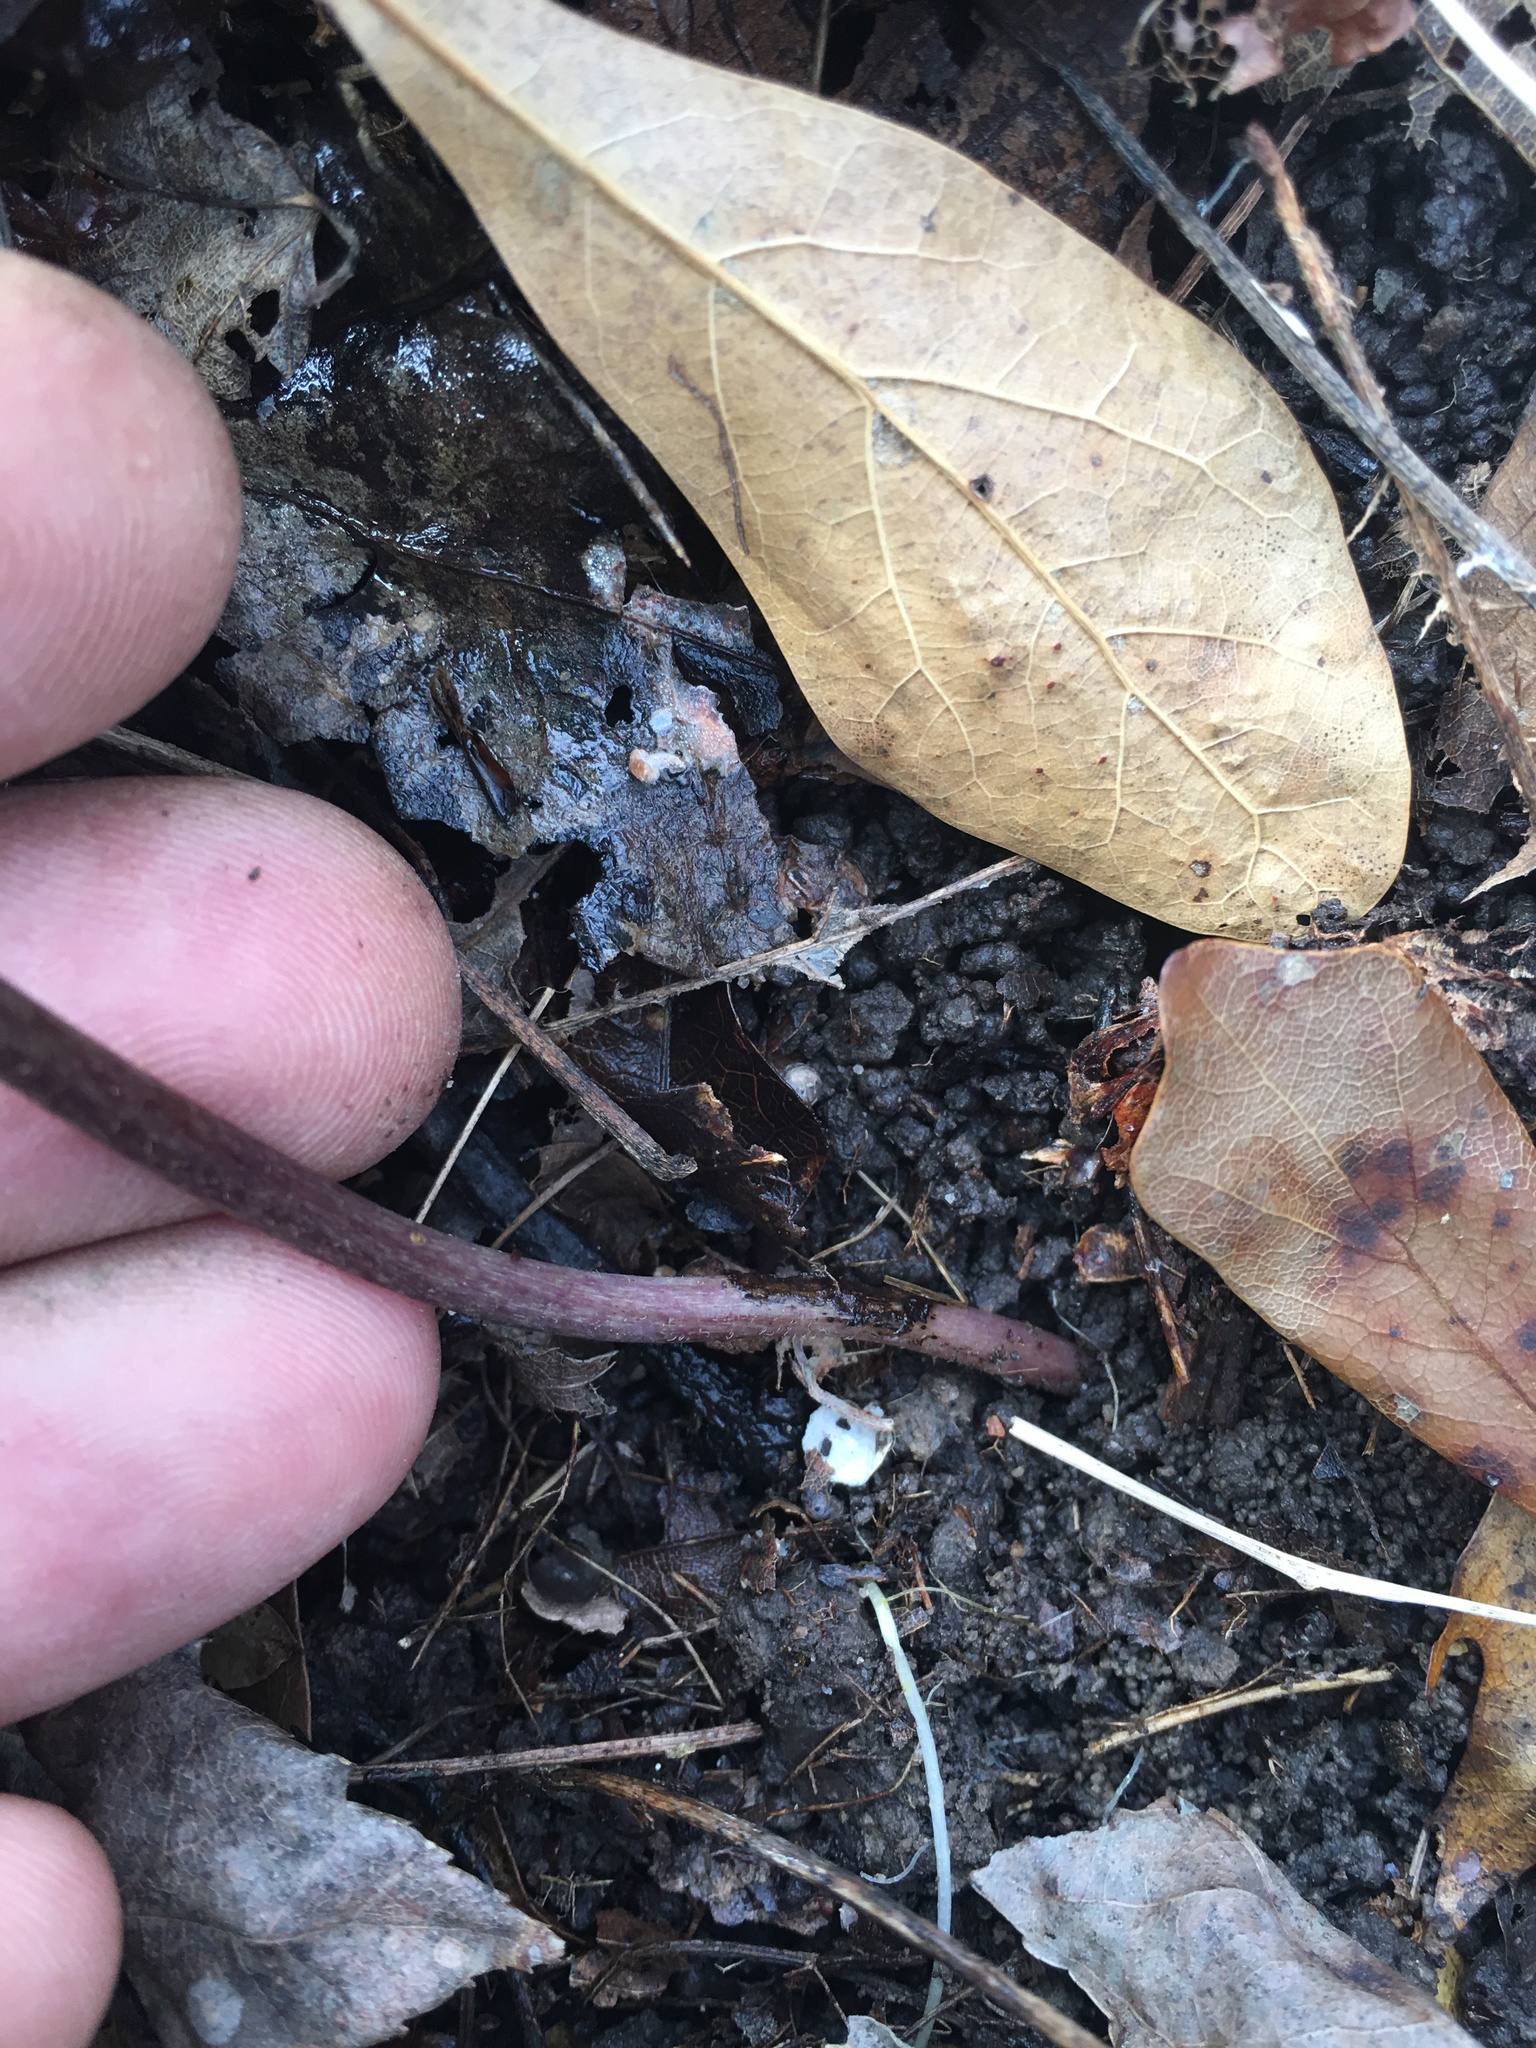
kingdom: Plantae
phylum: Tracheophyta
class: Magnoliopsida
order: Piperales
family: Aristolochiaceae
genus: Hexastylis
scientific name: Hexastylis arifolia
